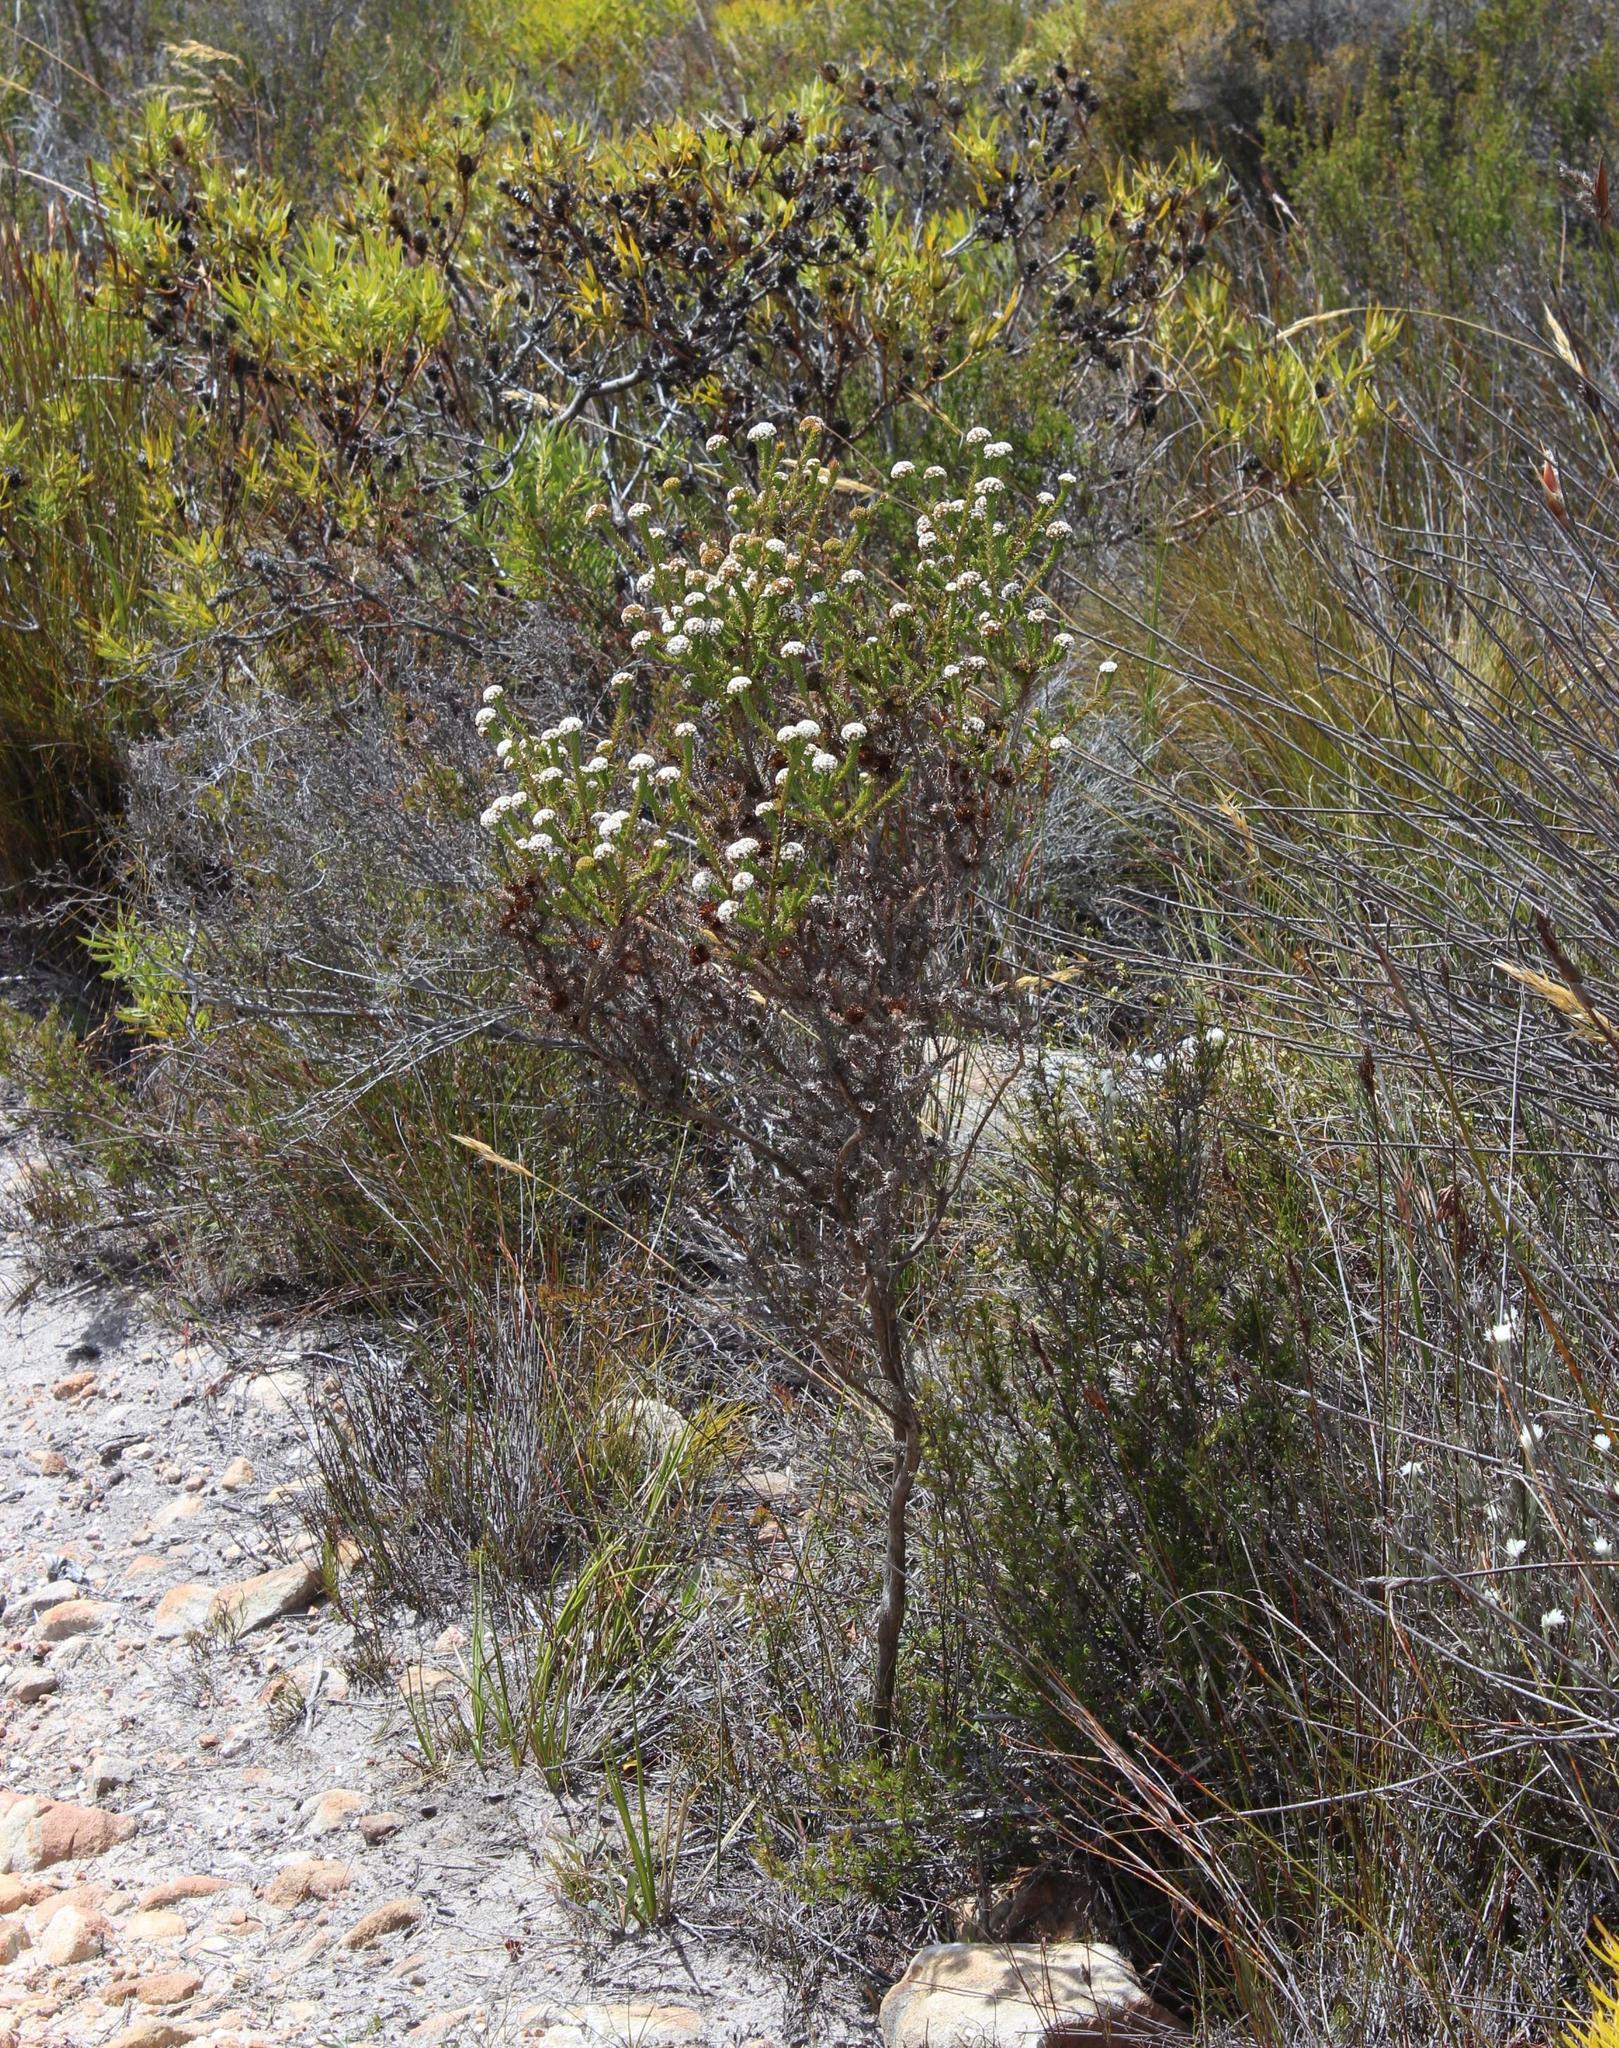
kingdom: Plantae
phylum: Tracheophyta
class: Magnoliopsida
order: Asterales
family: Asteraceae
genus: Stoebe
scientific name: Stoebe aethiopica
